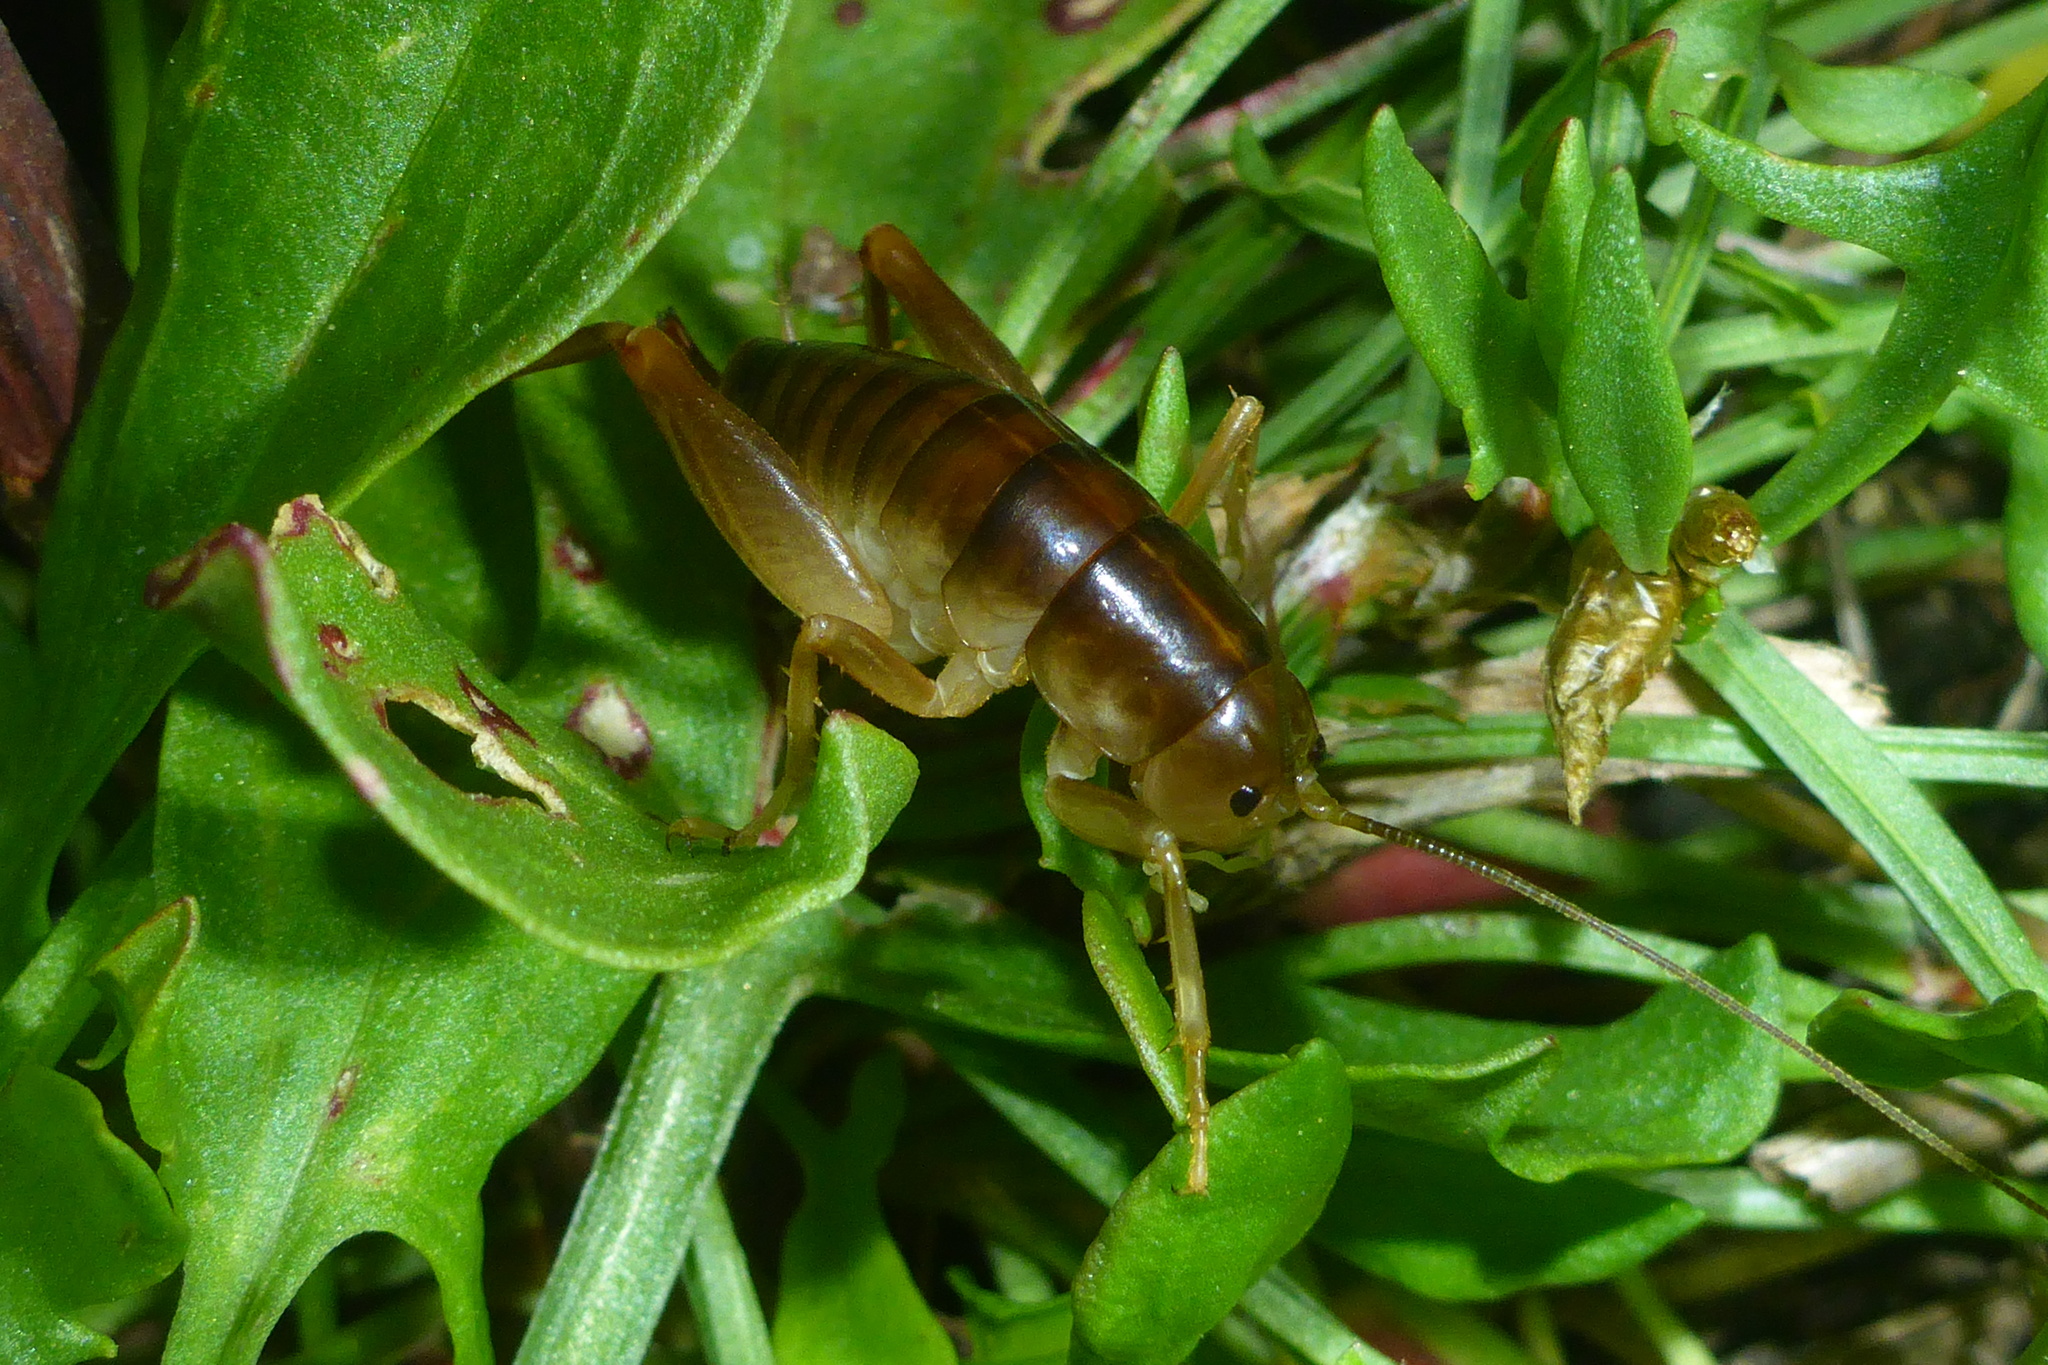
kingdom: Animalia
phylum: Arthropoda
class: Insecta
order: Orthoptera
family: Rhaphidophoridae
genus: Ceuthophilus
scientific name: Ceuthophilus californianus
